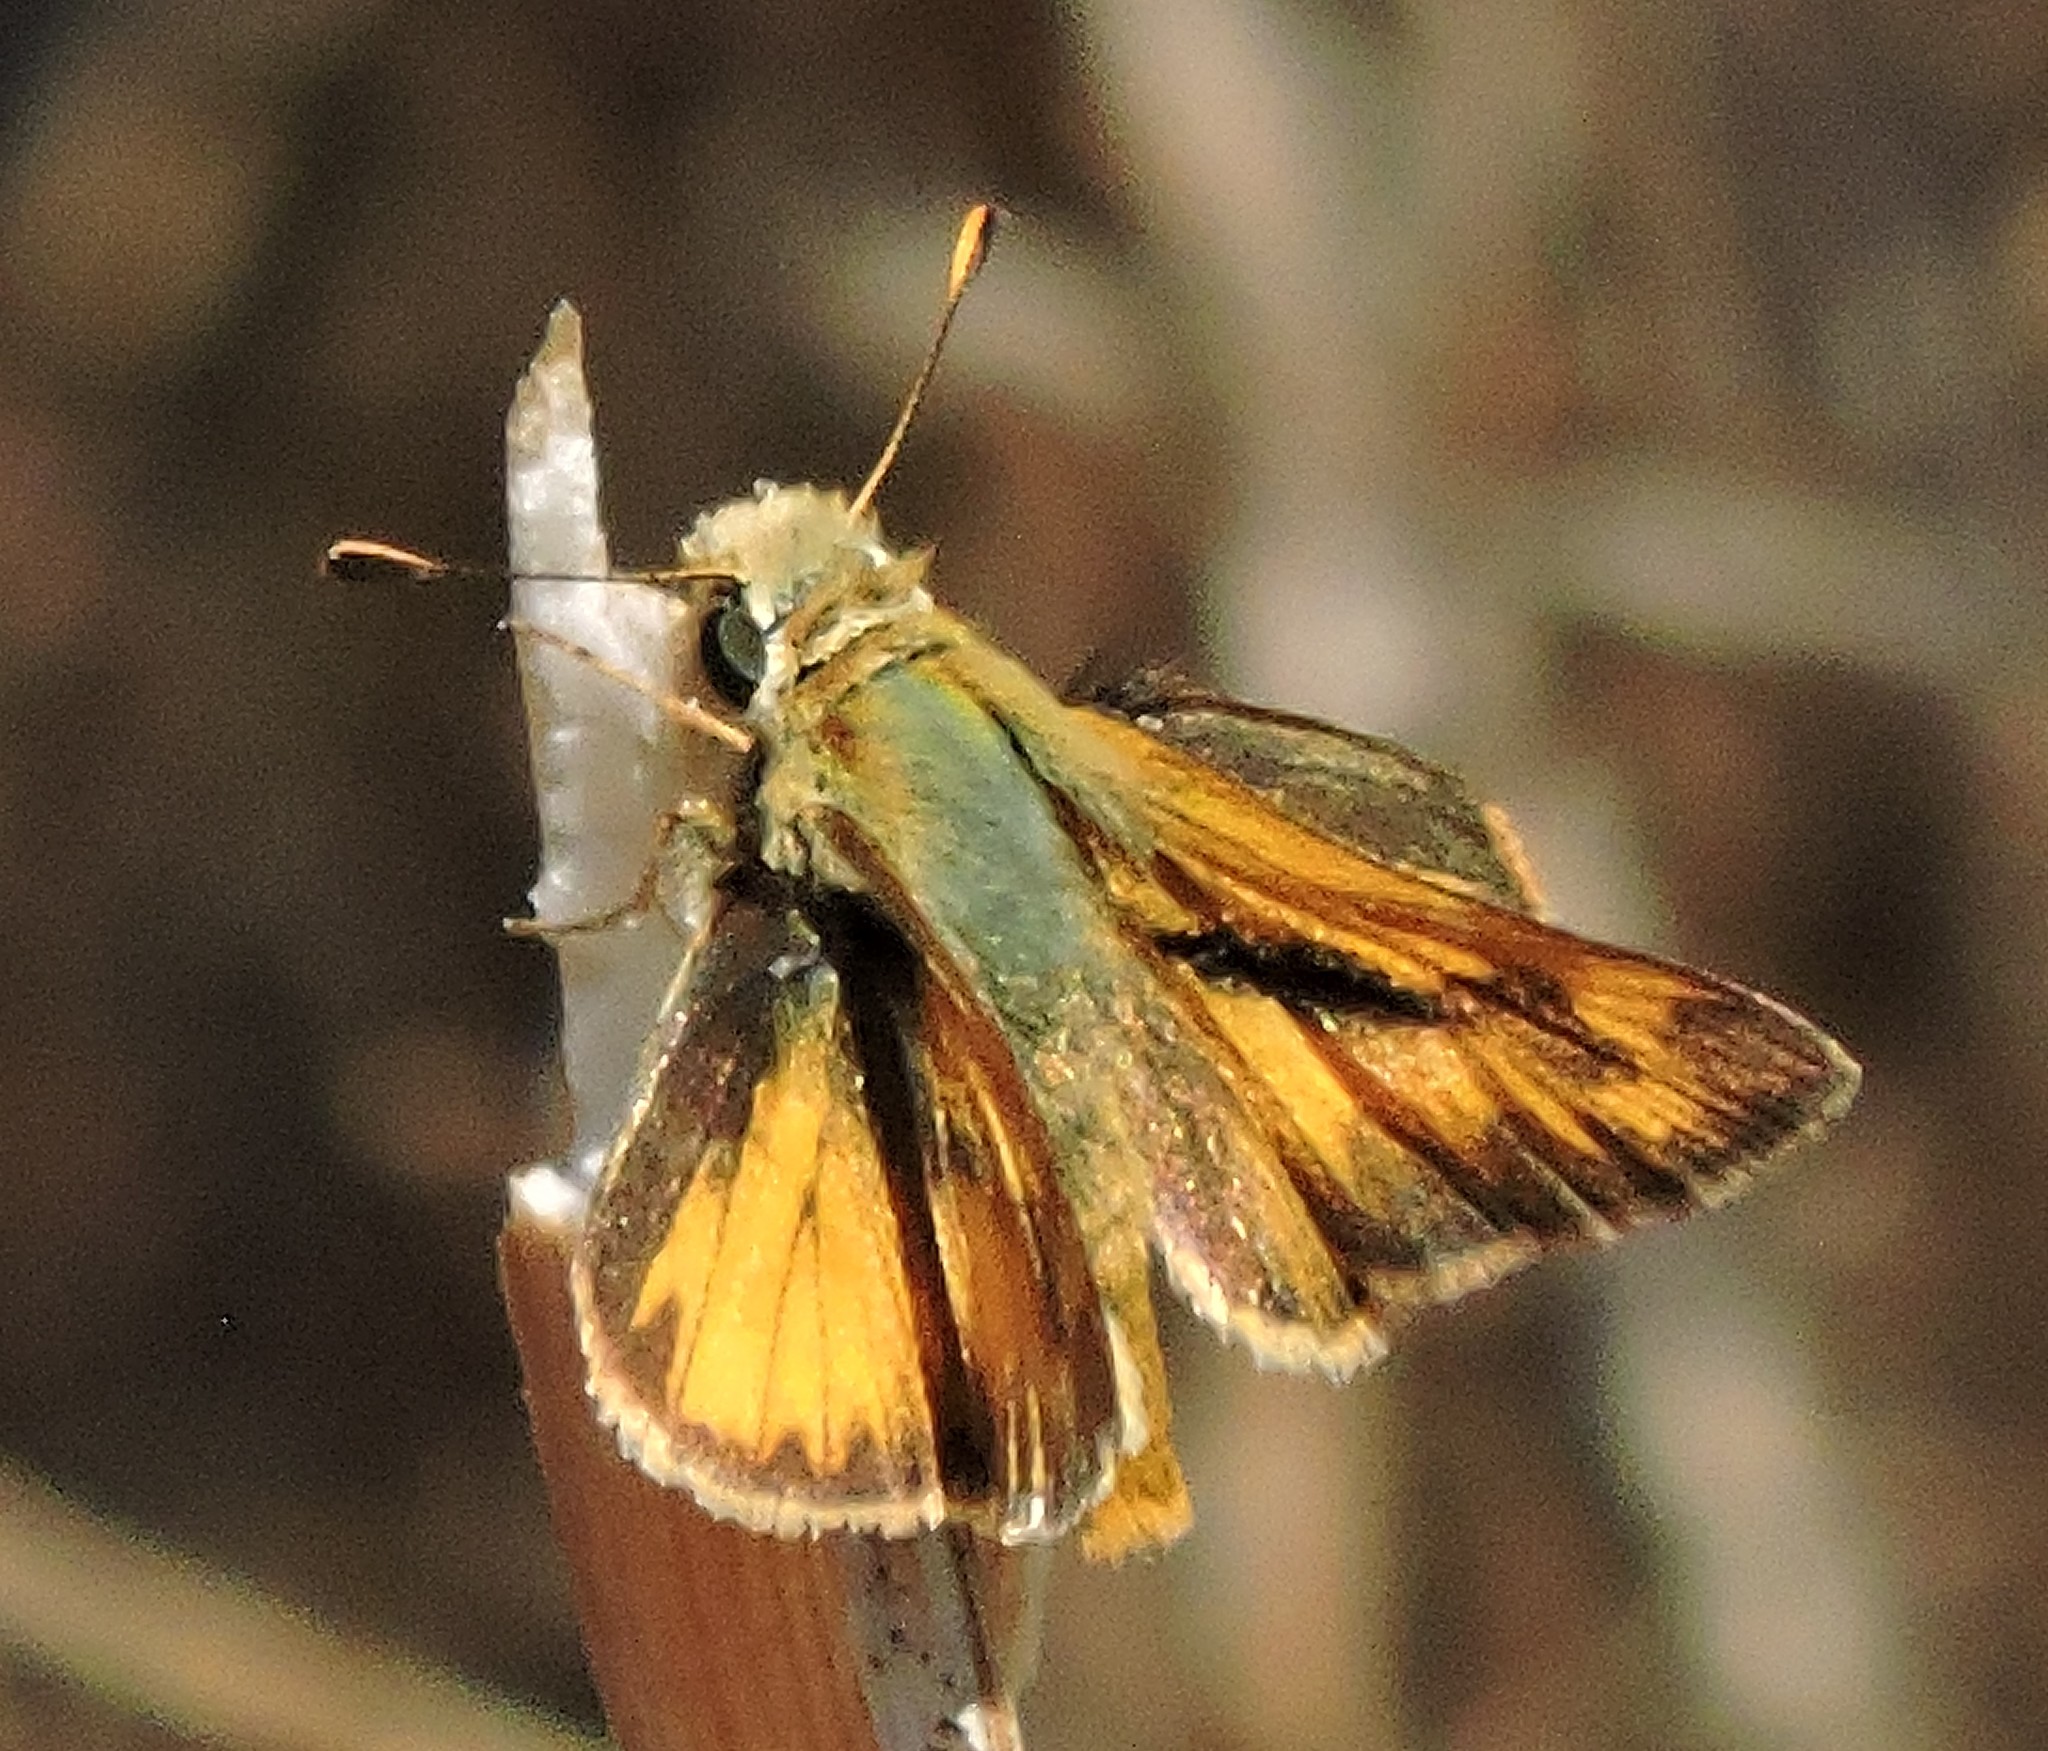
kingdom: Animalia
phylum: Arthropoda
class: Insecta
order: Lepidoptera
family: Hesperiidae
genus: Ochlodes
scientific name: Ochlodes sylvanoides
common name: Woodland skipper
